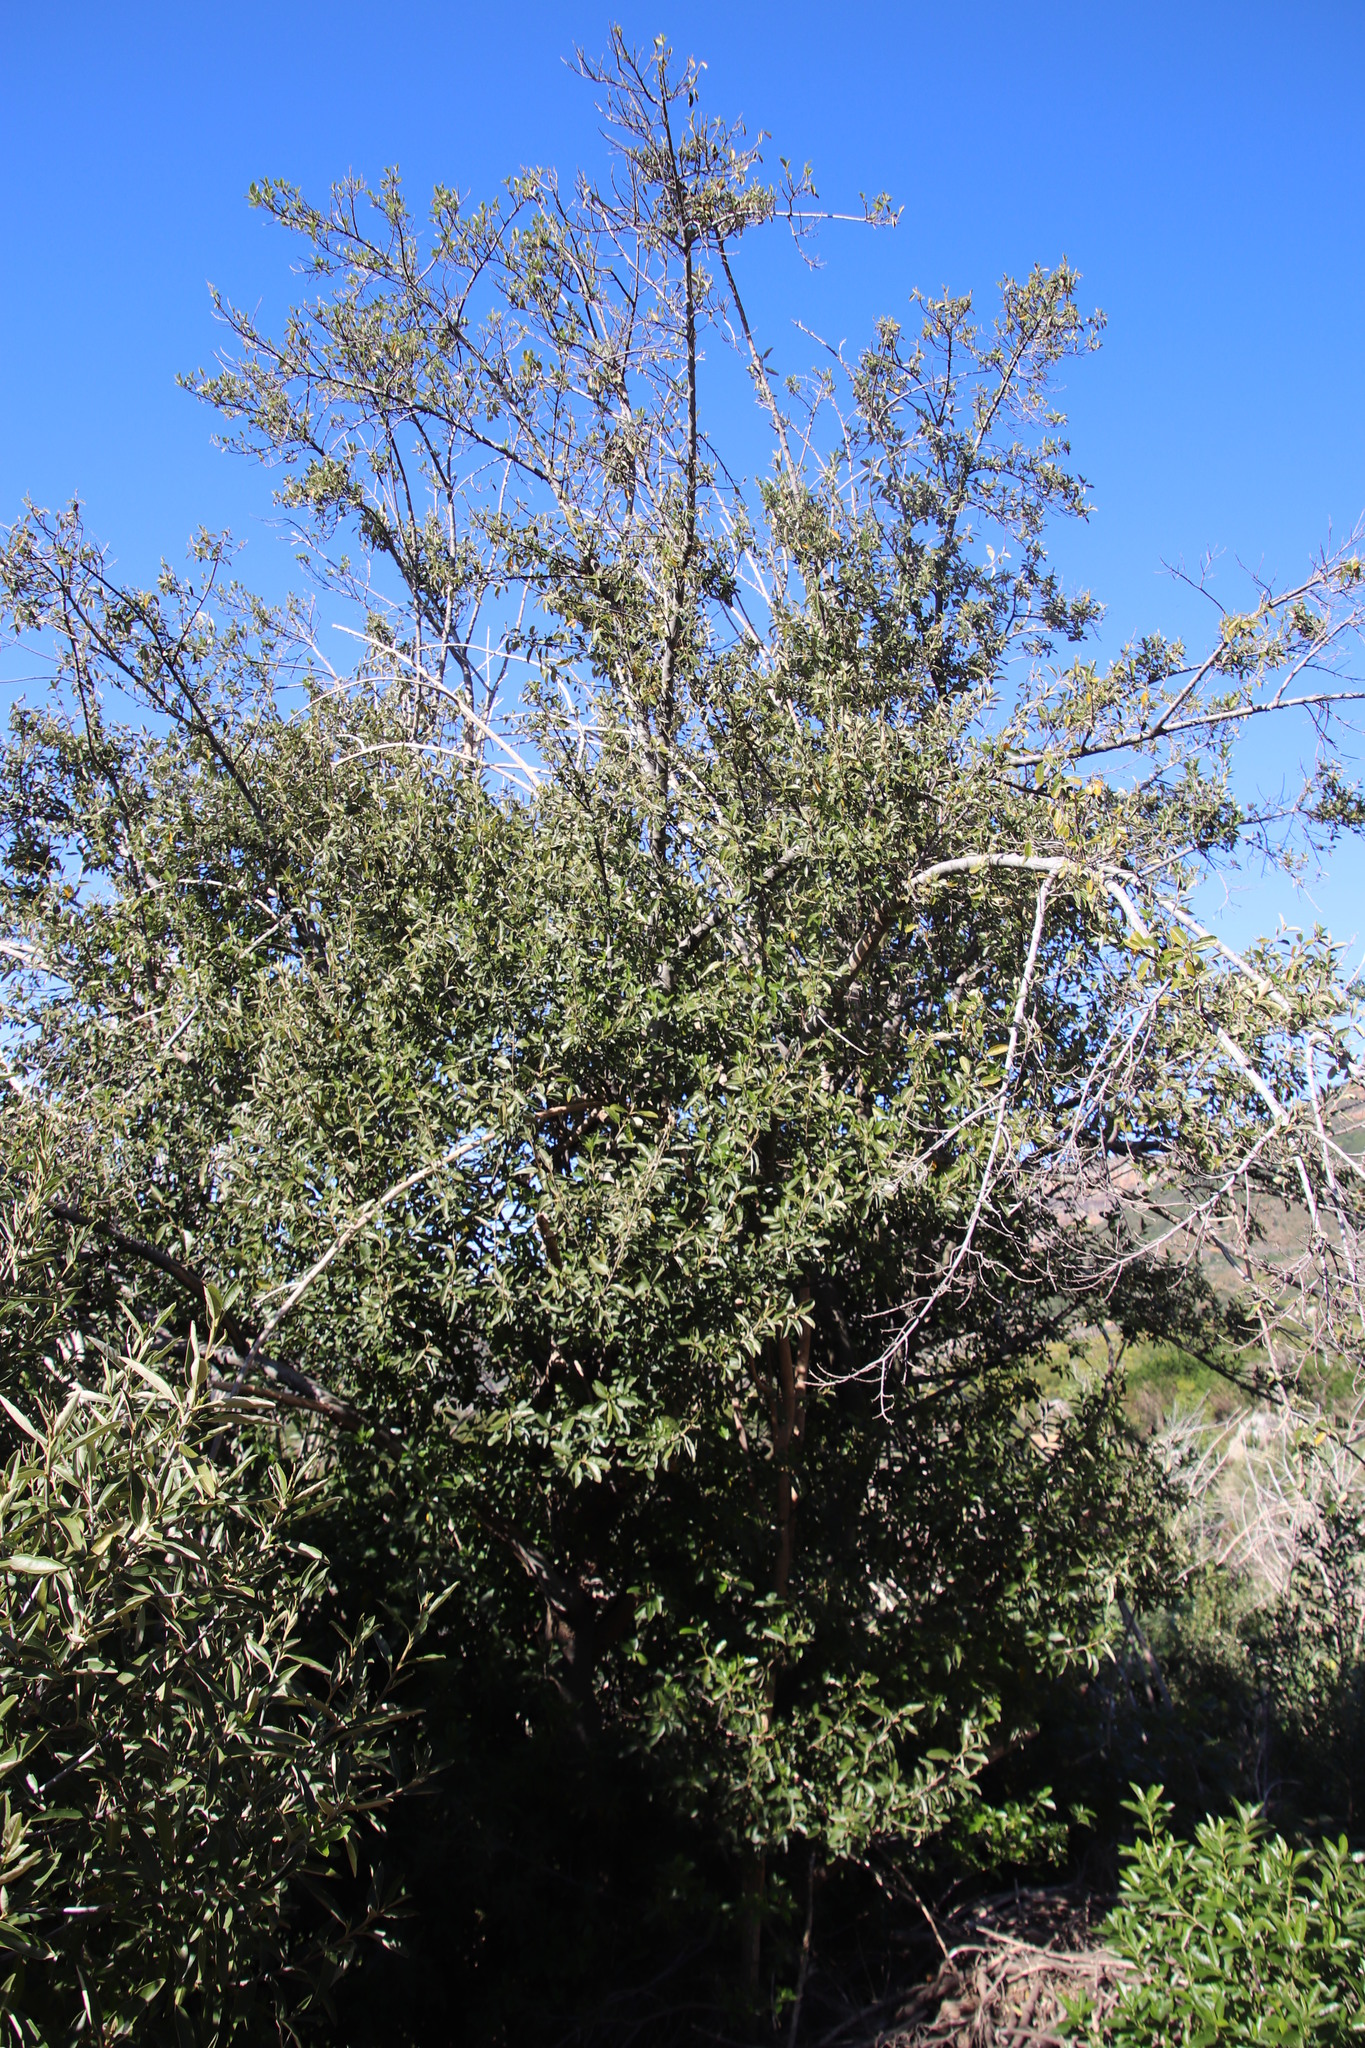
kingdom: Plantae
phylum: Tracheophyta
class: Magnoliopsida
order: Malpighiales
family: Achariaceae
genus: Kiggelaria
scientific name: Kiggelaria africana
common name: Wild peach
